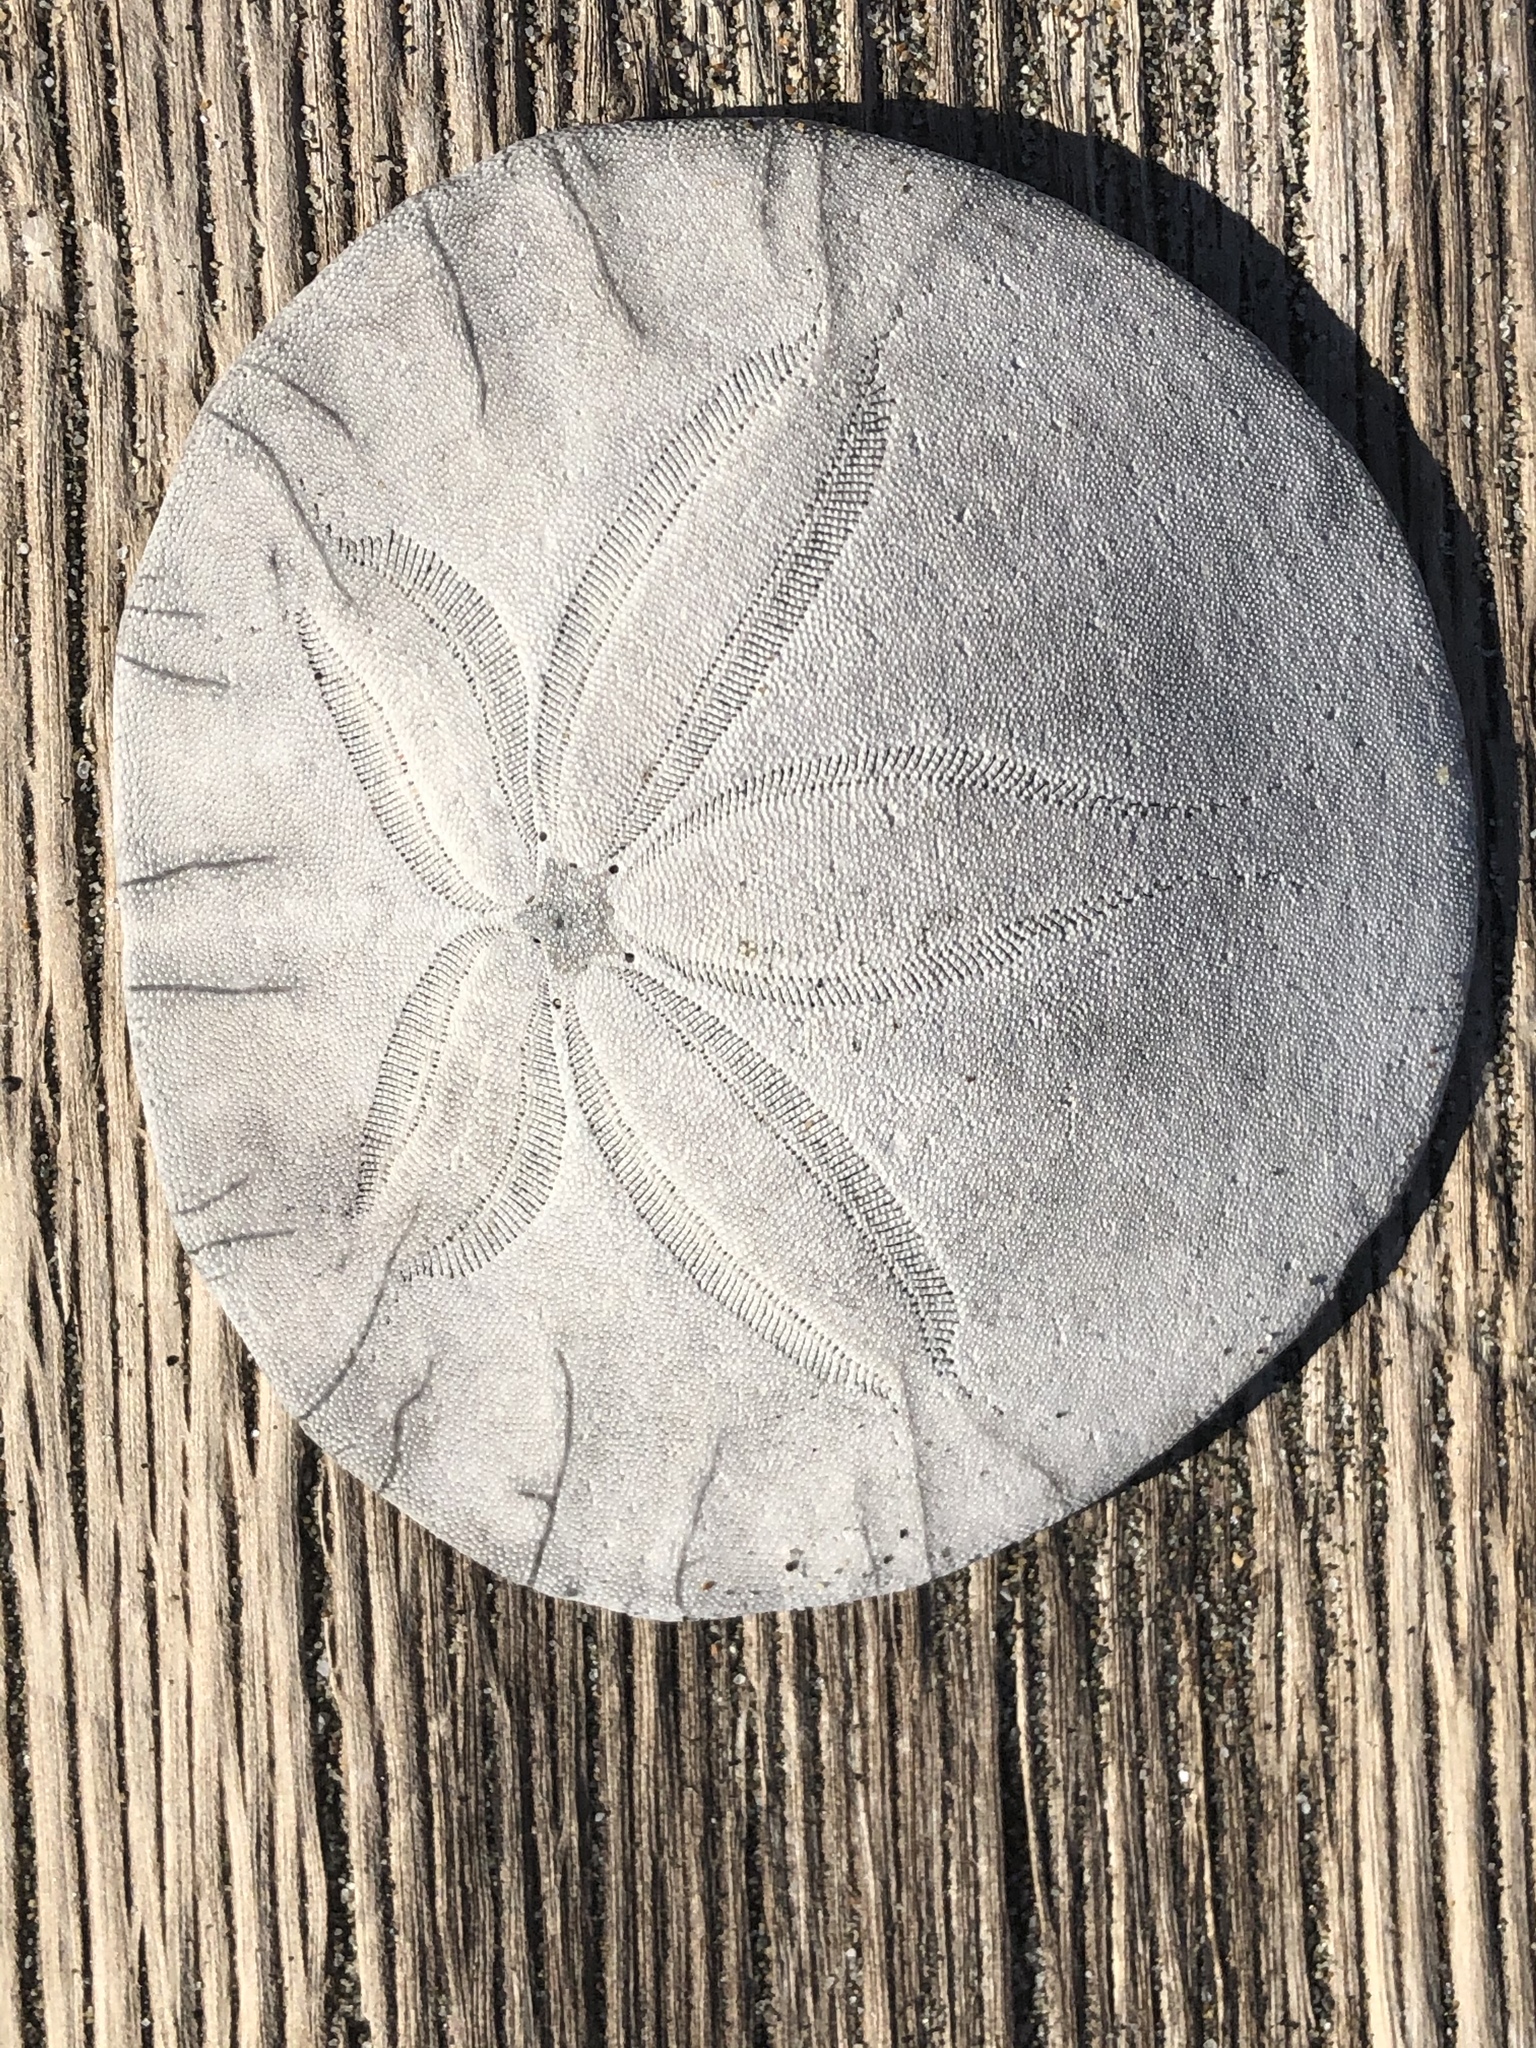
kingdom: Animalia
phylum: Echinodermata
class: Echinoidea
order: Echinolampadacea
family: Dendrasteridae
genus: Dendraster
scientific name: Dendraster excentricus
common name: Eccentric sand dollar sea urchin
